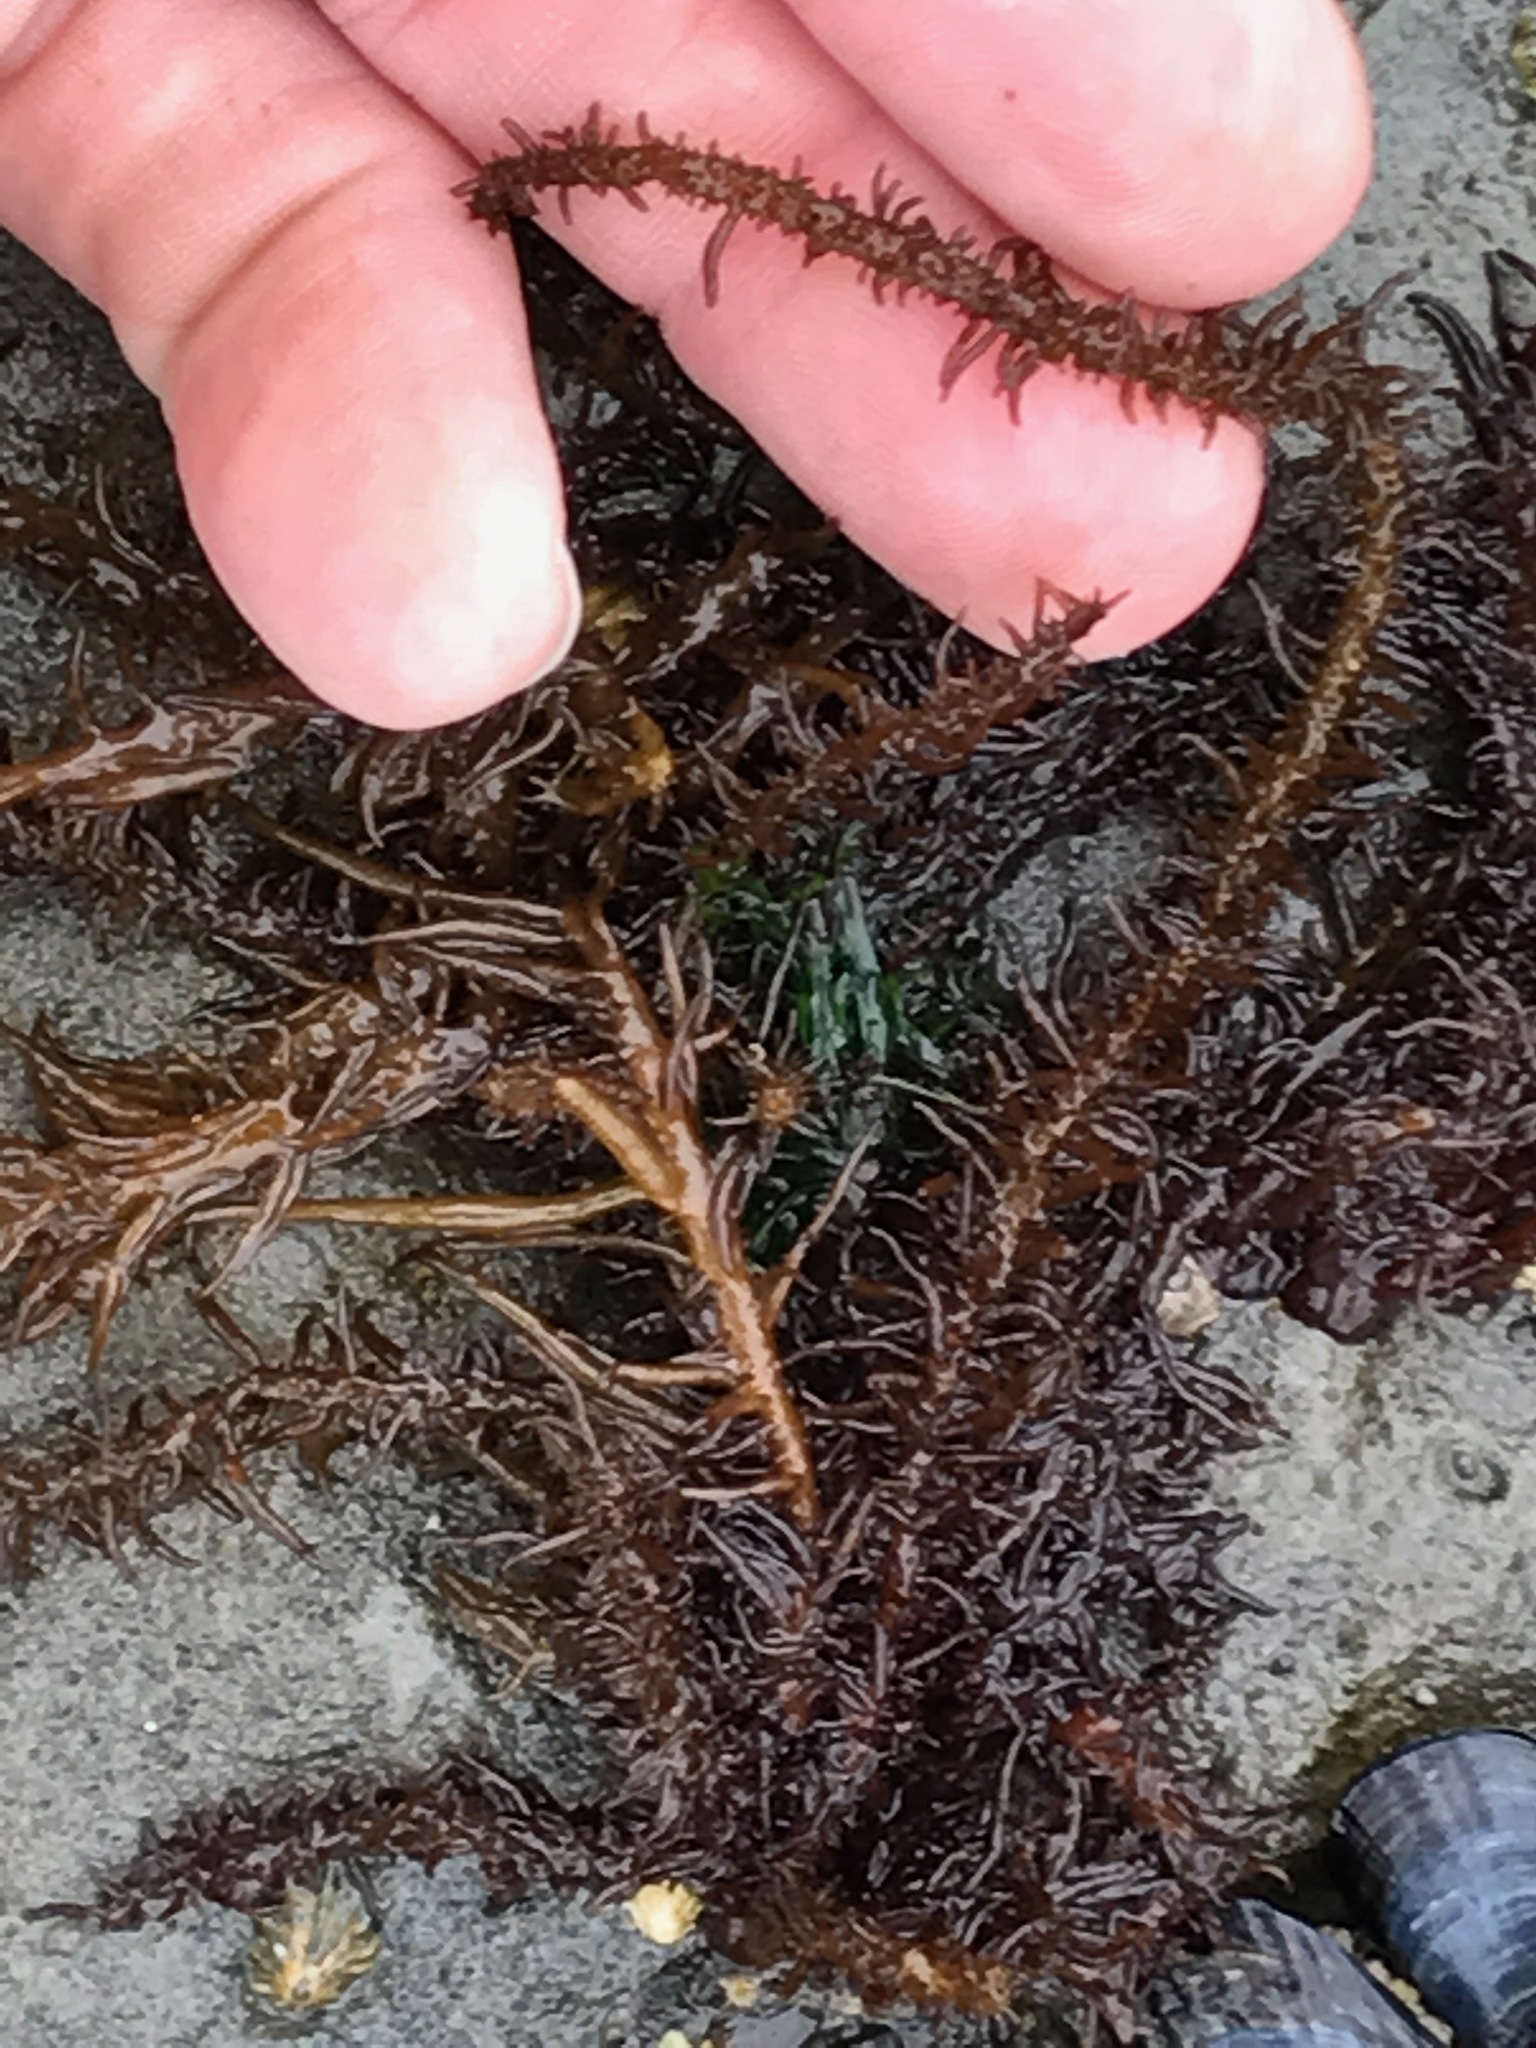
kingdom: Plantae
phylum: Rhodophyta
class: Florideophyceae
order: Nemaliales
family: Liagoraceae
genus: Cumagloia
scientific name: Cumagloia andersonii
